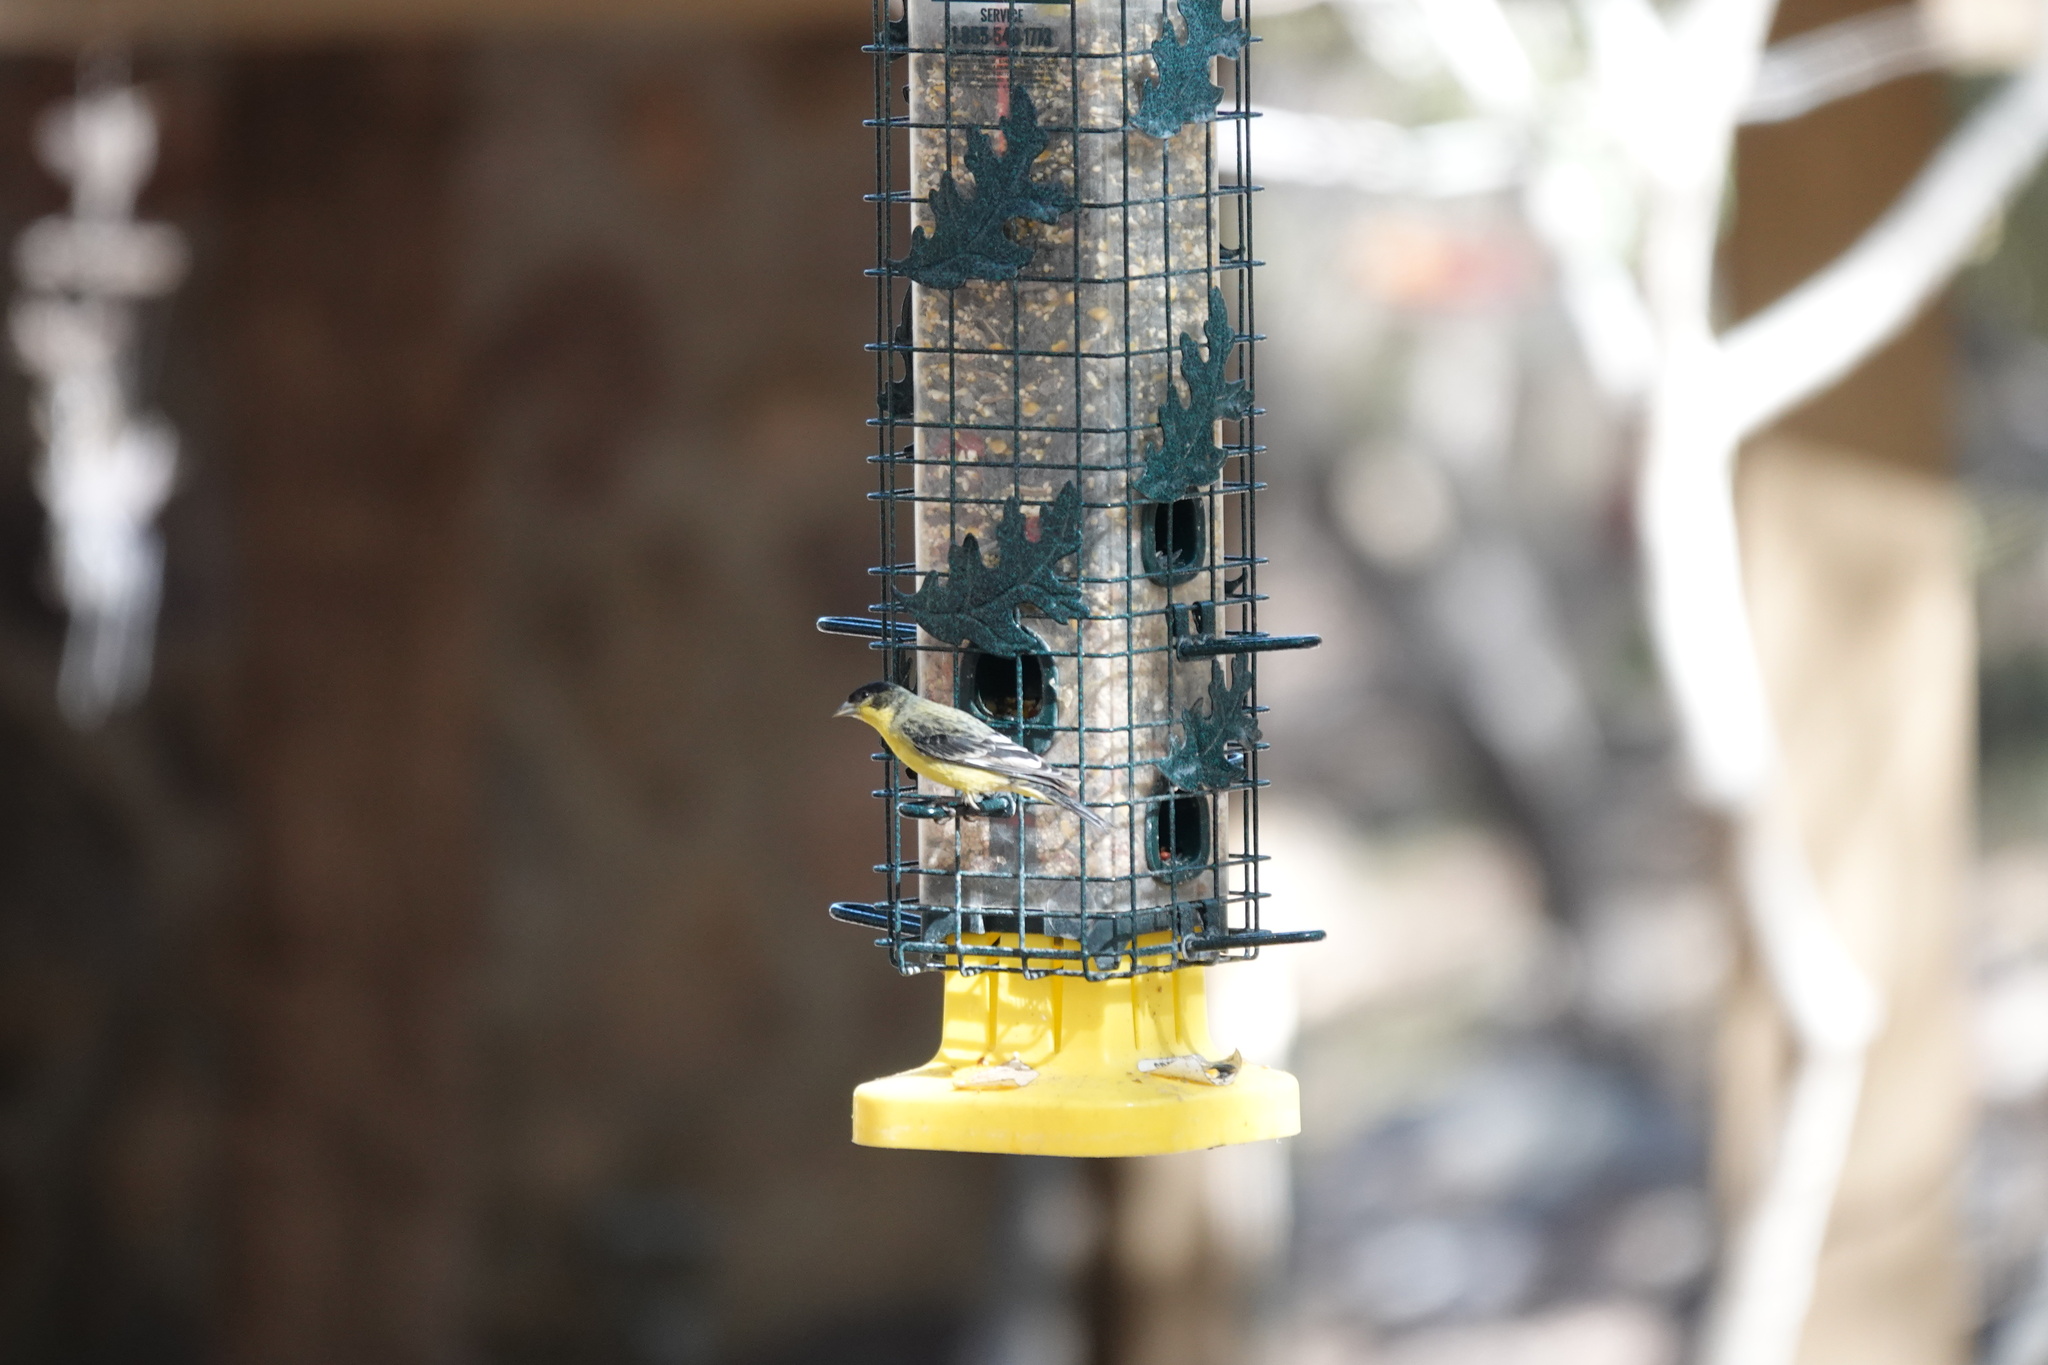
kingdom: Animalia
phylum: Chordata
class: Aves
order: Passeriformes
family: Fringillidae
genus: Spinus
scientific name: Spinus psaltria
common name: Lesser goldfinch
